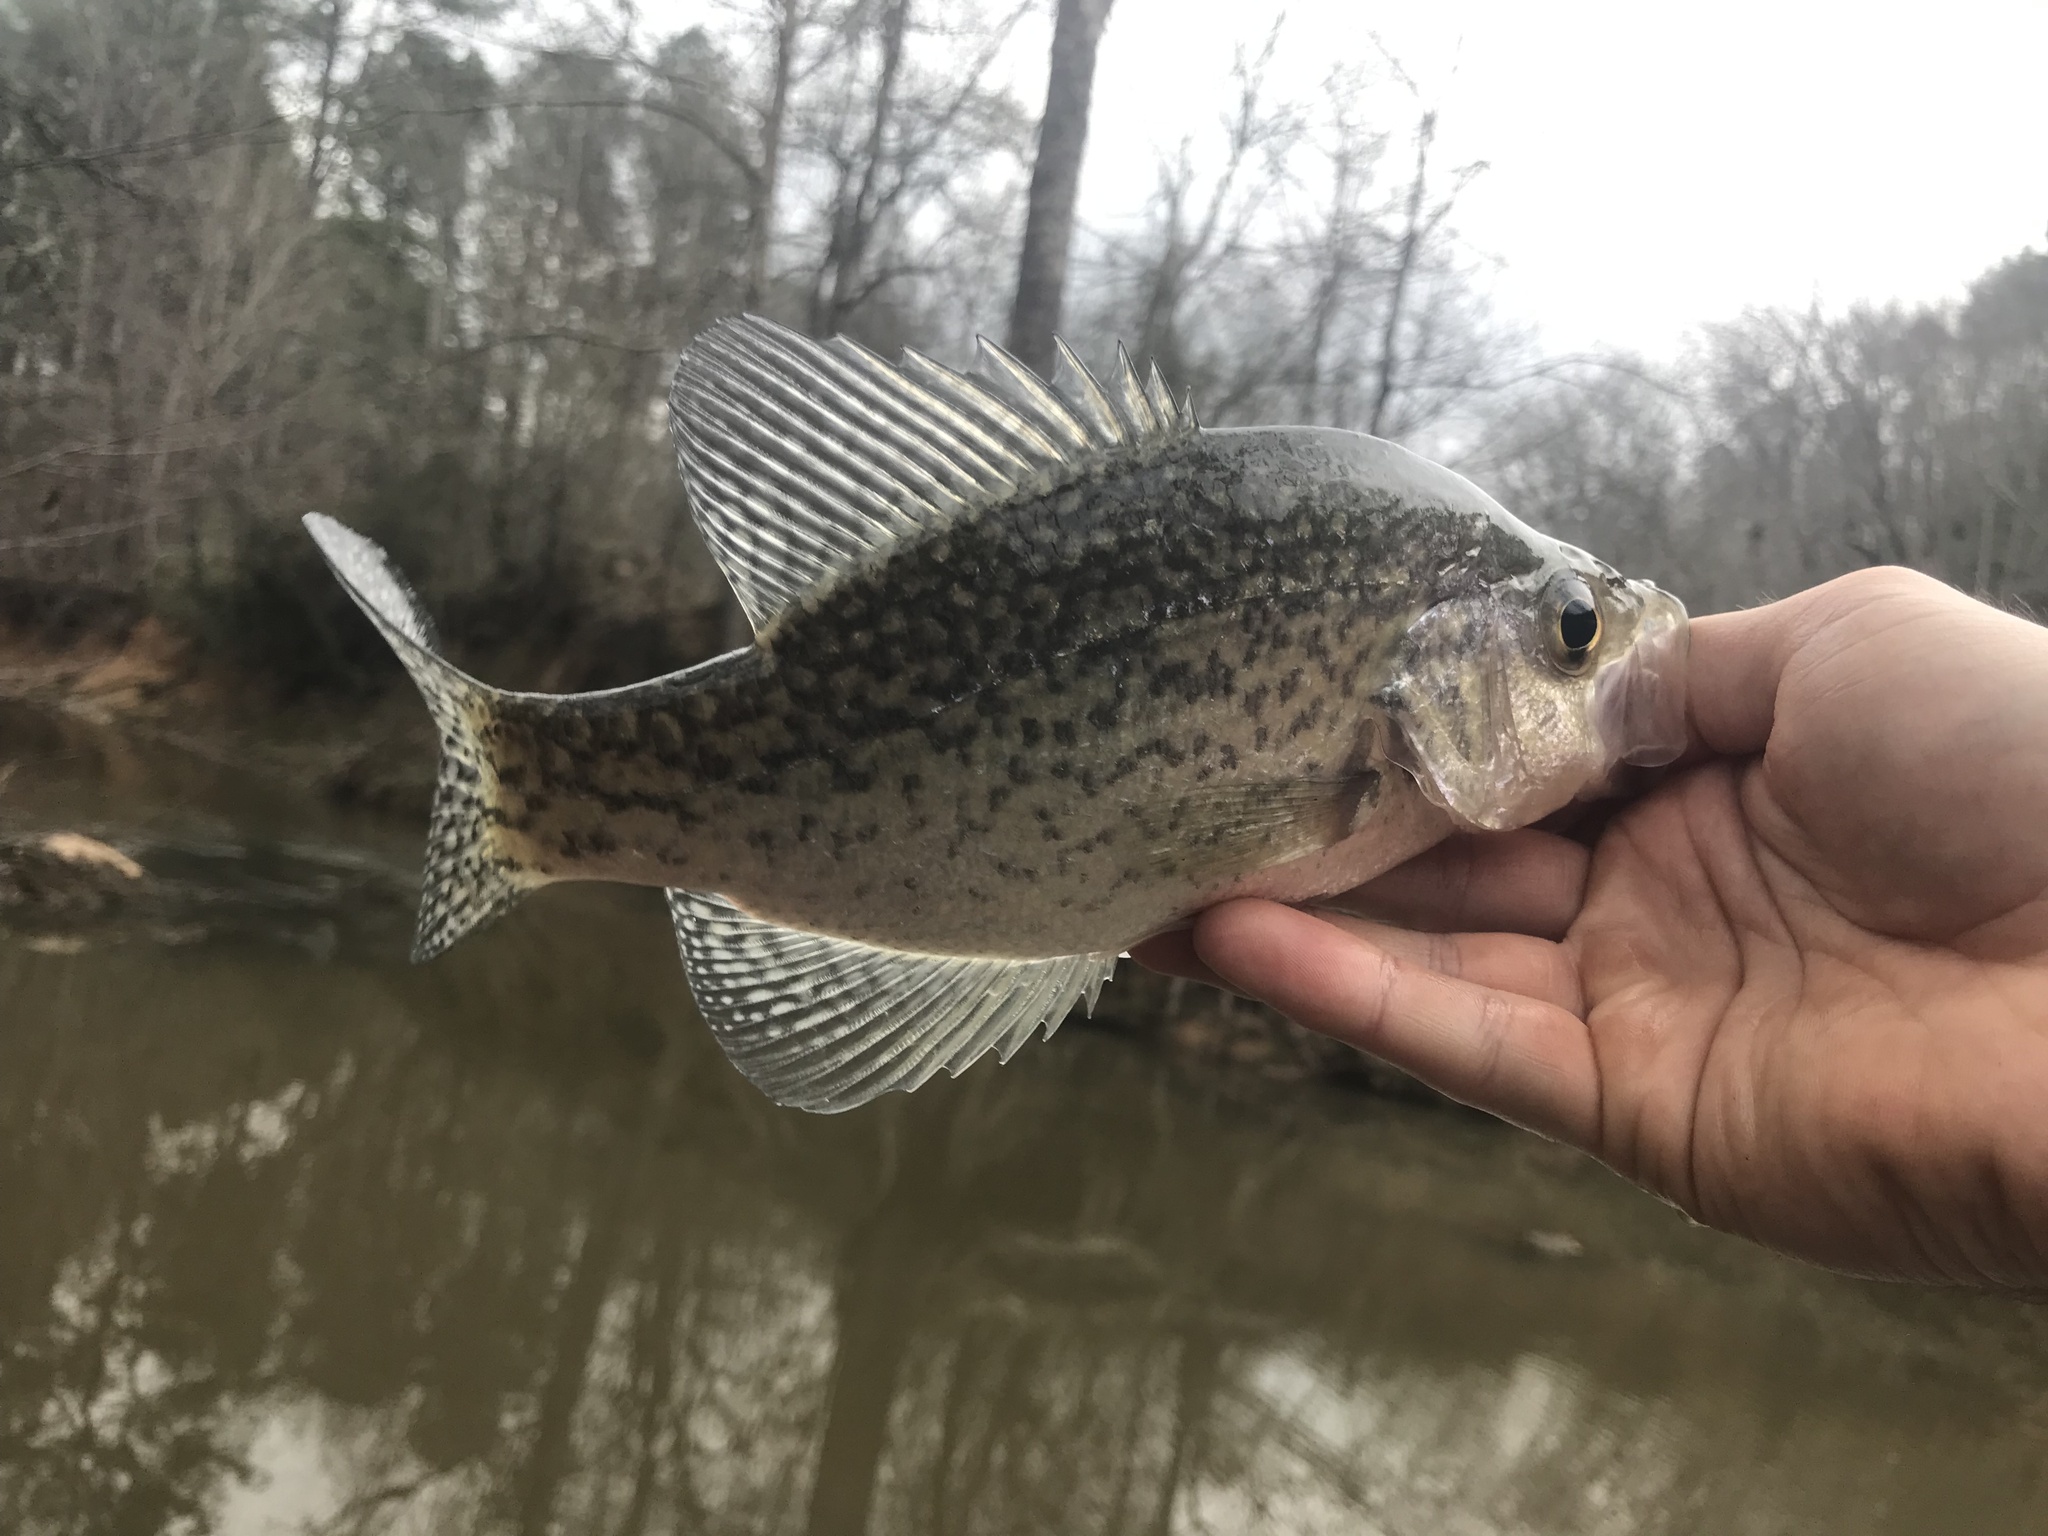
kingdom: Animalia
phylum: Chordata
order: Perciformes
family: Centrarchidae
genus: Pomoxis
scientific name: Pomoxis nigromaculatus
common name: Black crappie
